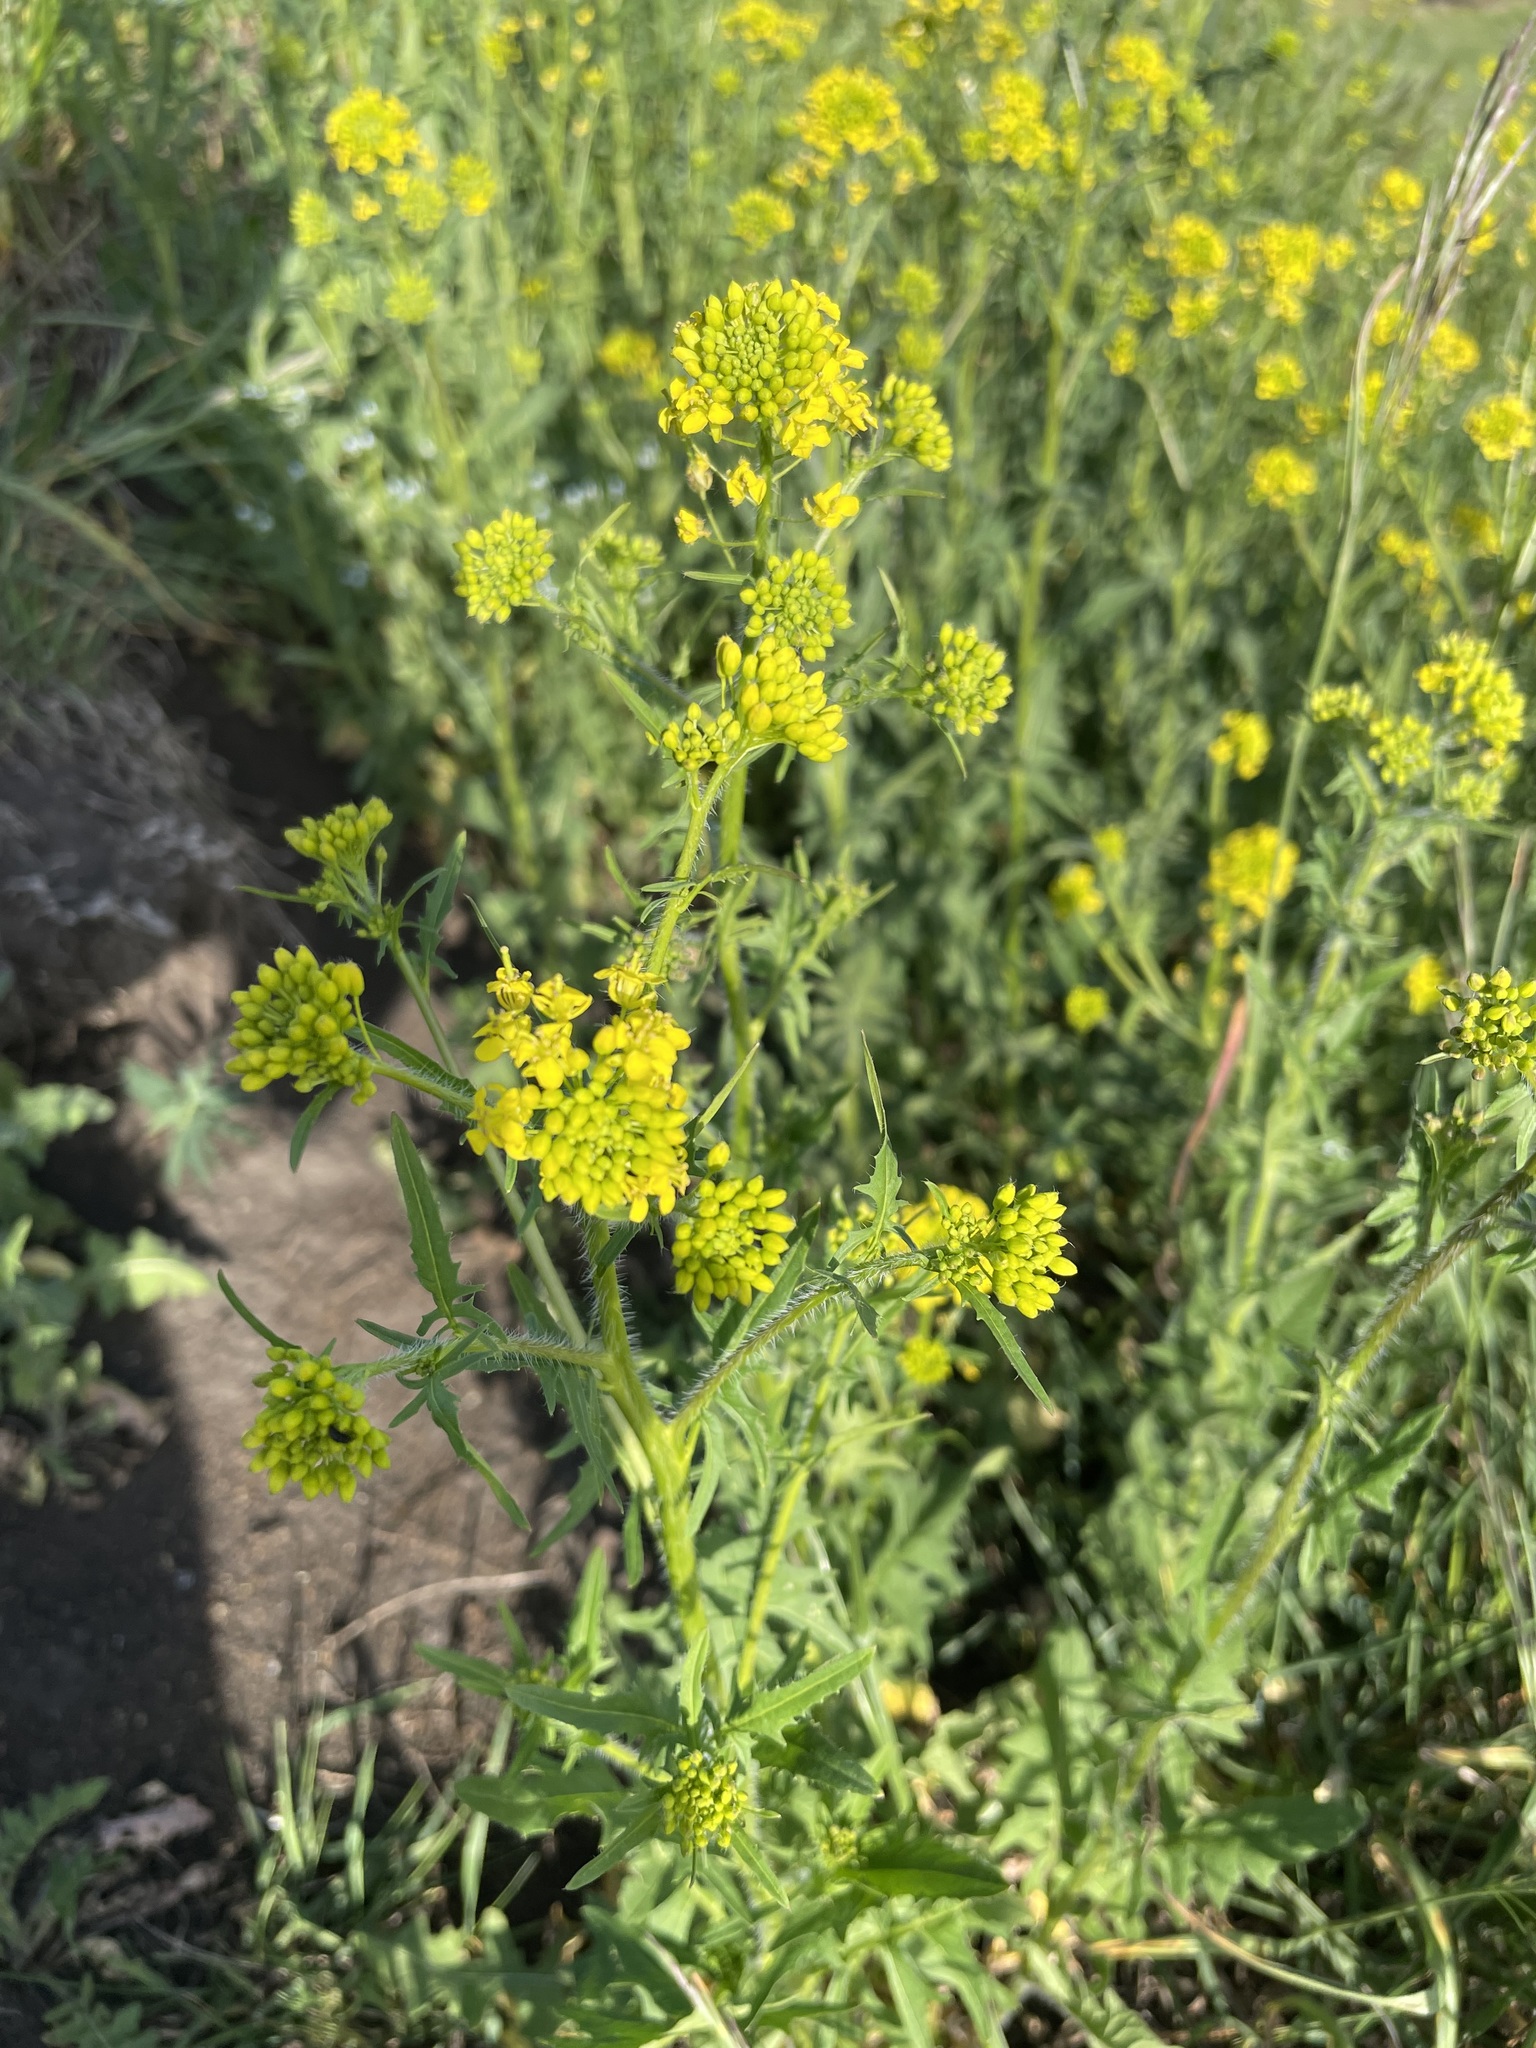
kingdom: Plantae
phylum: Tracheophyta
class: Magnoliopsida
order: Brassicales
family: Brassicaceae
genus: Sisymbrium
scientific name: Sisymbrium loeselii
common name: False london-rocket
